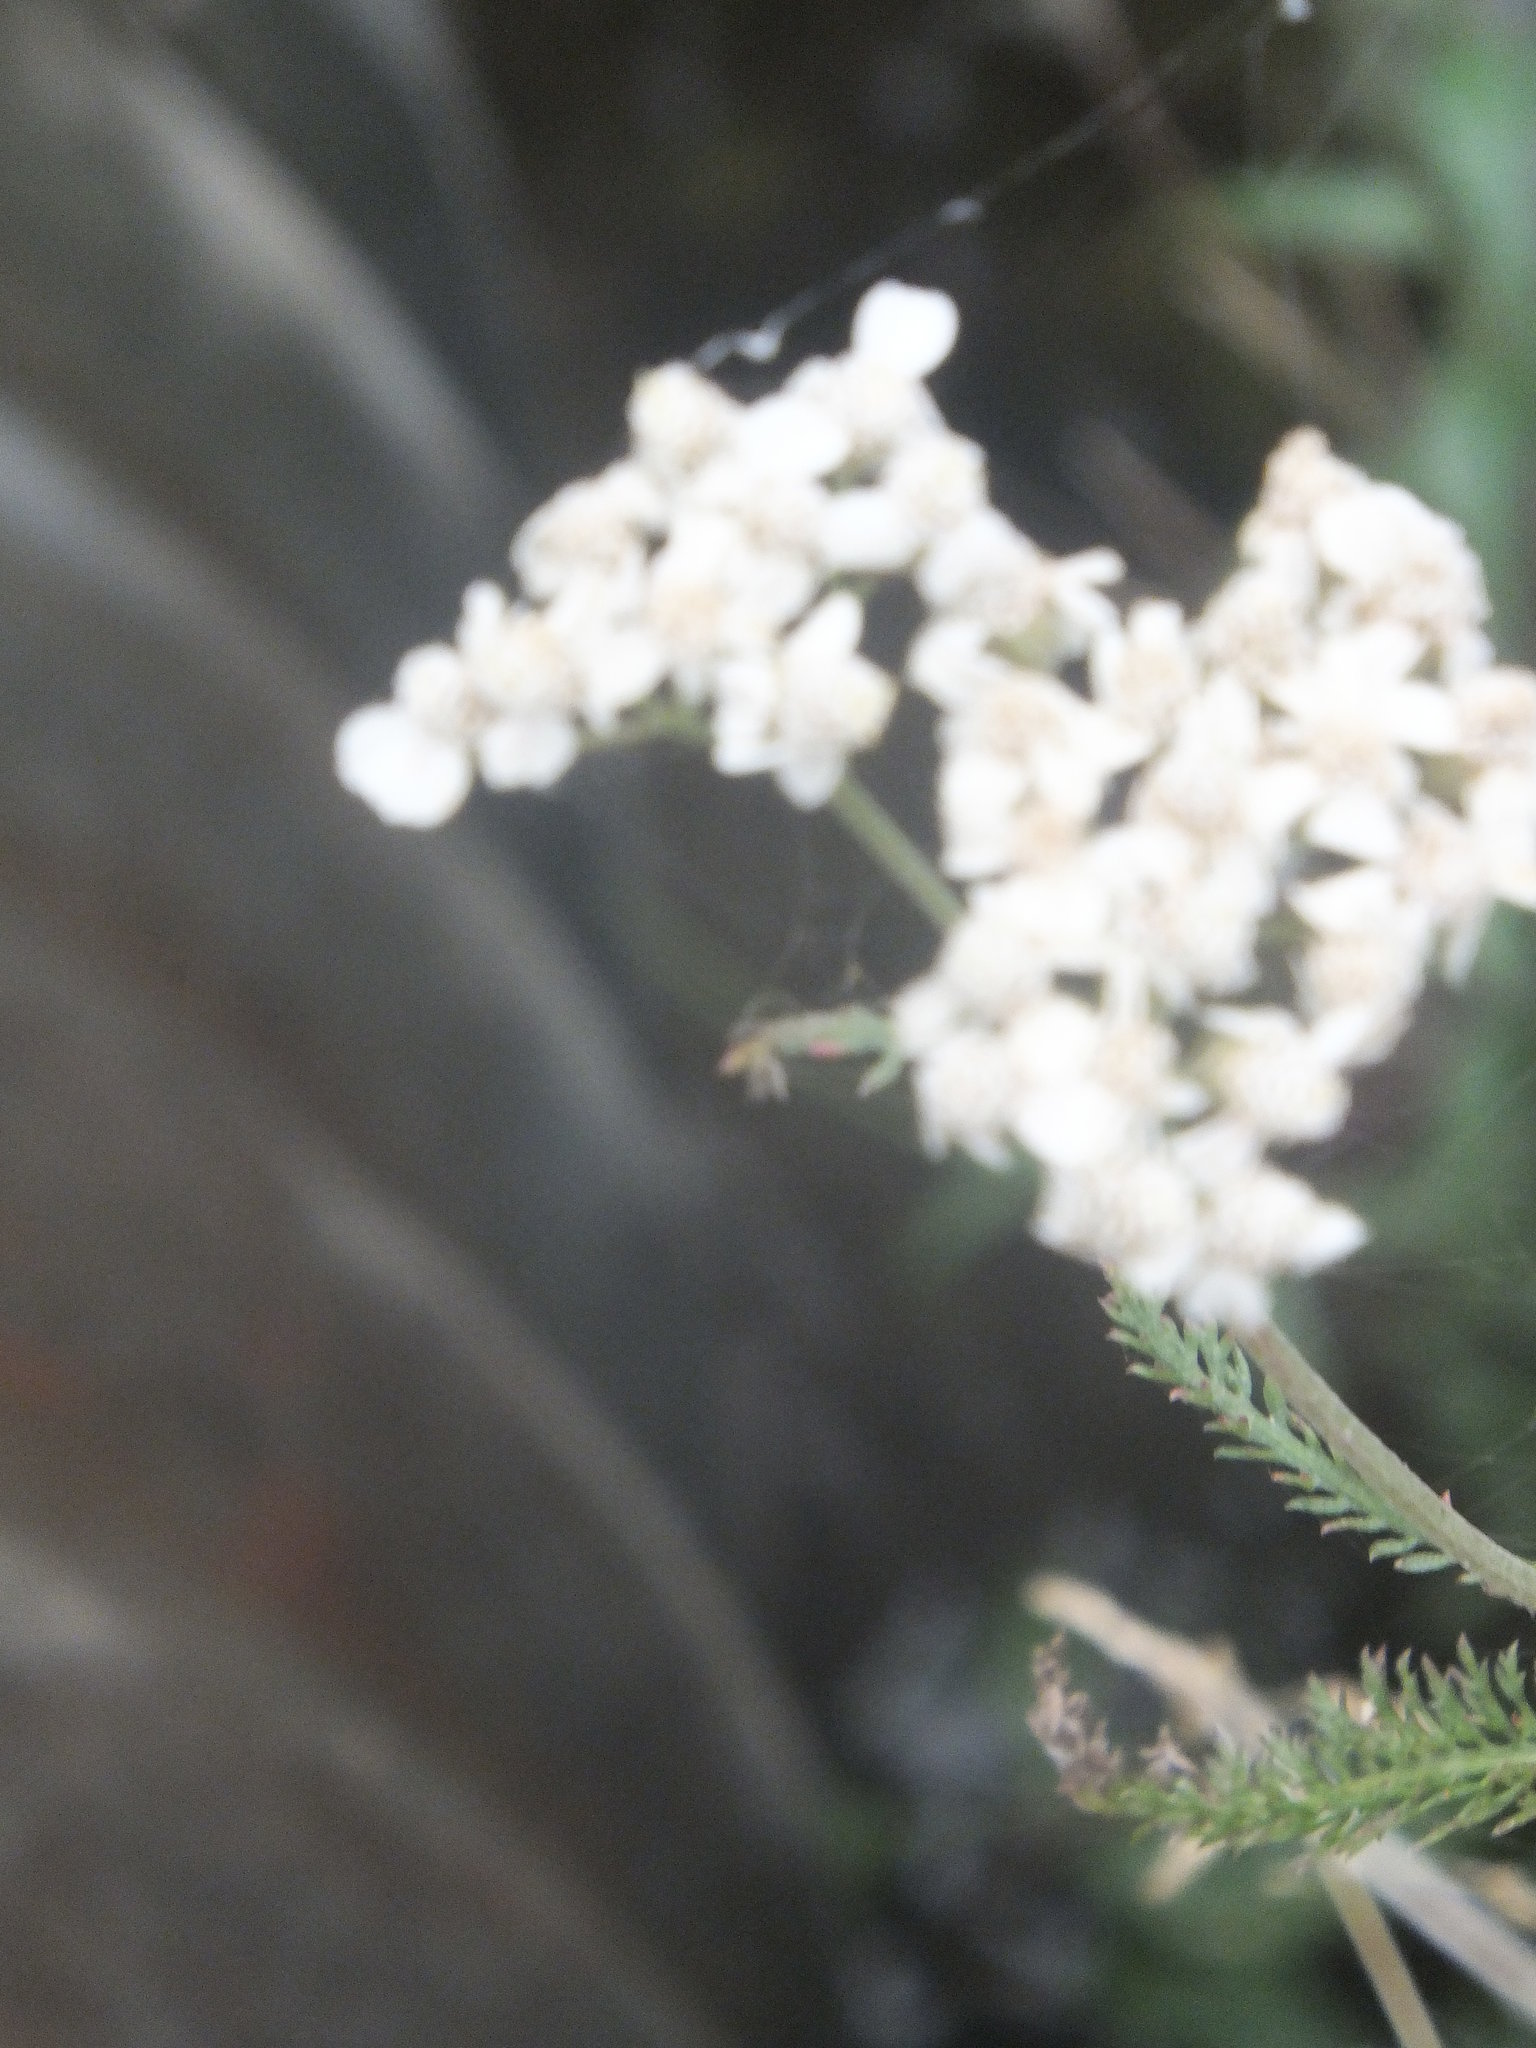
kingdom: Plantae
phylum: Tracheophyta
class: Magnoliopsida
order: Asterales
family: Asteraceae
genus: Achillea
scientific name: Achillea millefolium
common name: Yarrow
